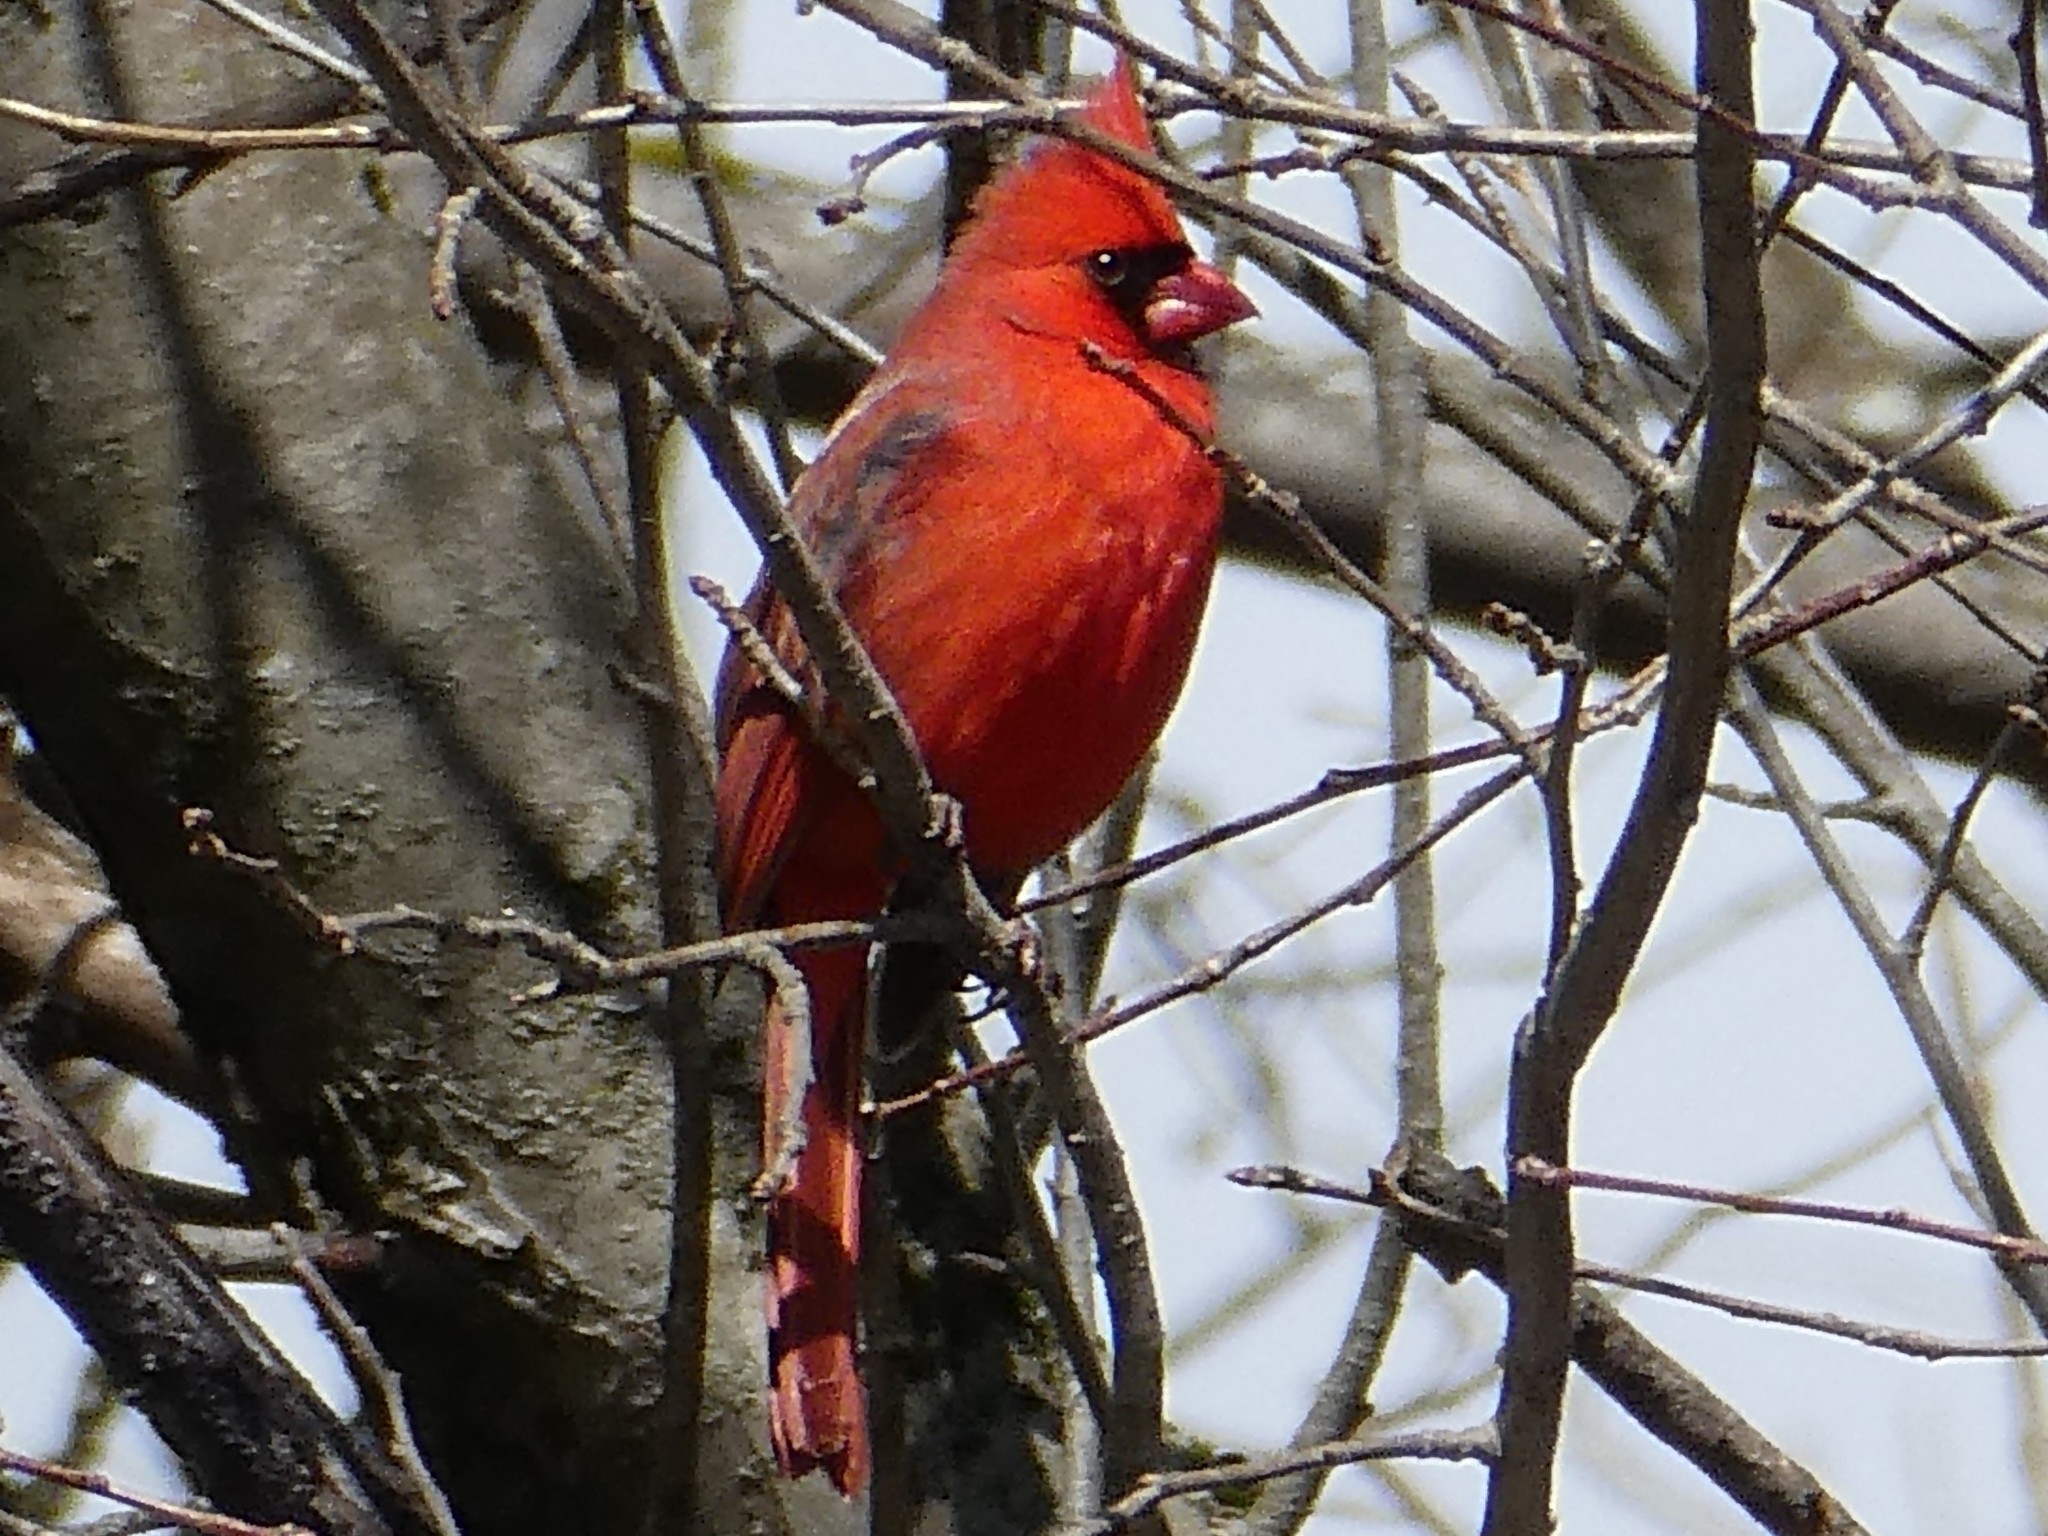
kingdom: Animalia
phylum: Chordata
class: Aves
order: Passeriformes
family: Cardinalidae
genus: Cardinalis
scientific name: Cardinalis cardinalis
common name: Northern cardinal
